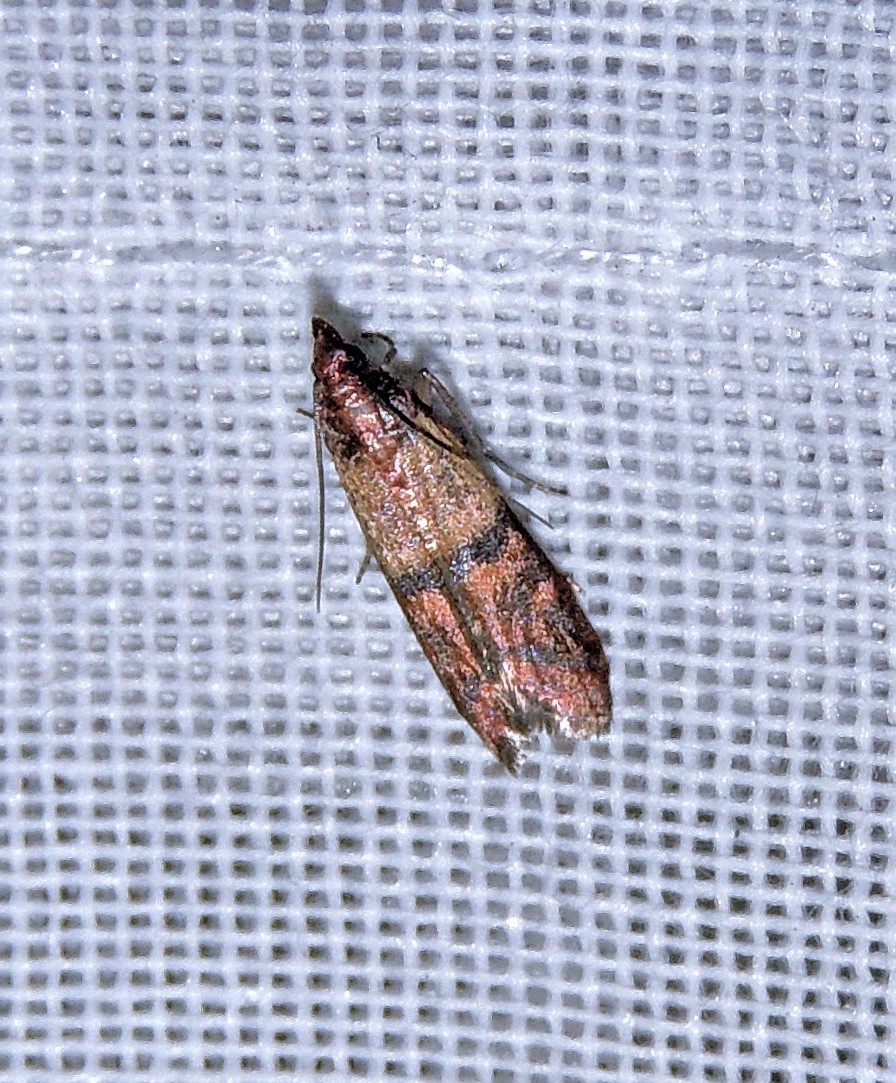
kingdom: Animalia
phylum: Arthropoda
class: Insecta
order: Lepidoptera
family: Pyralidae
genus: Plodia
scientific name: Plodia interpunctella
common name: Indian meal moth
